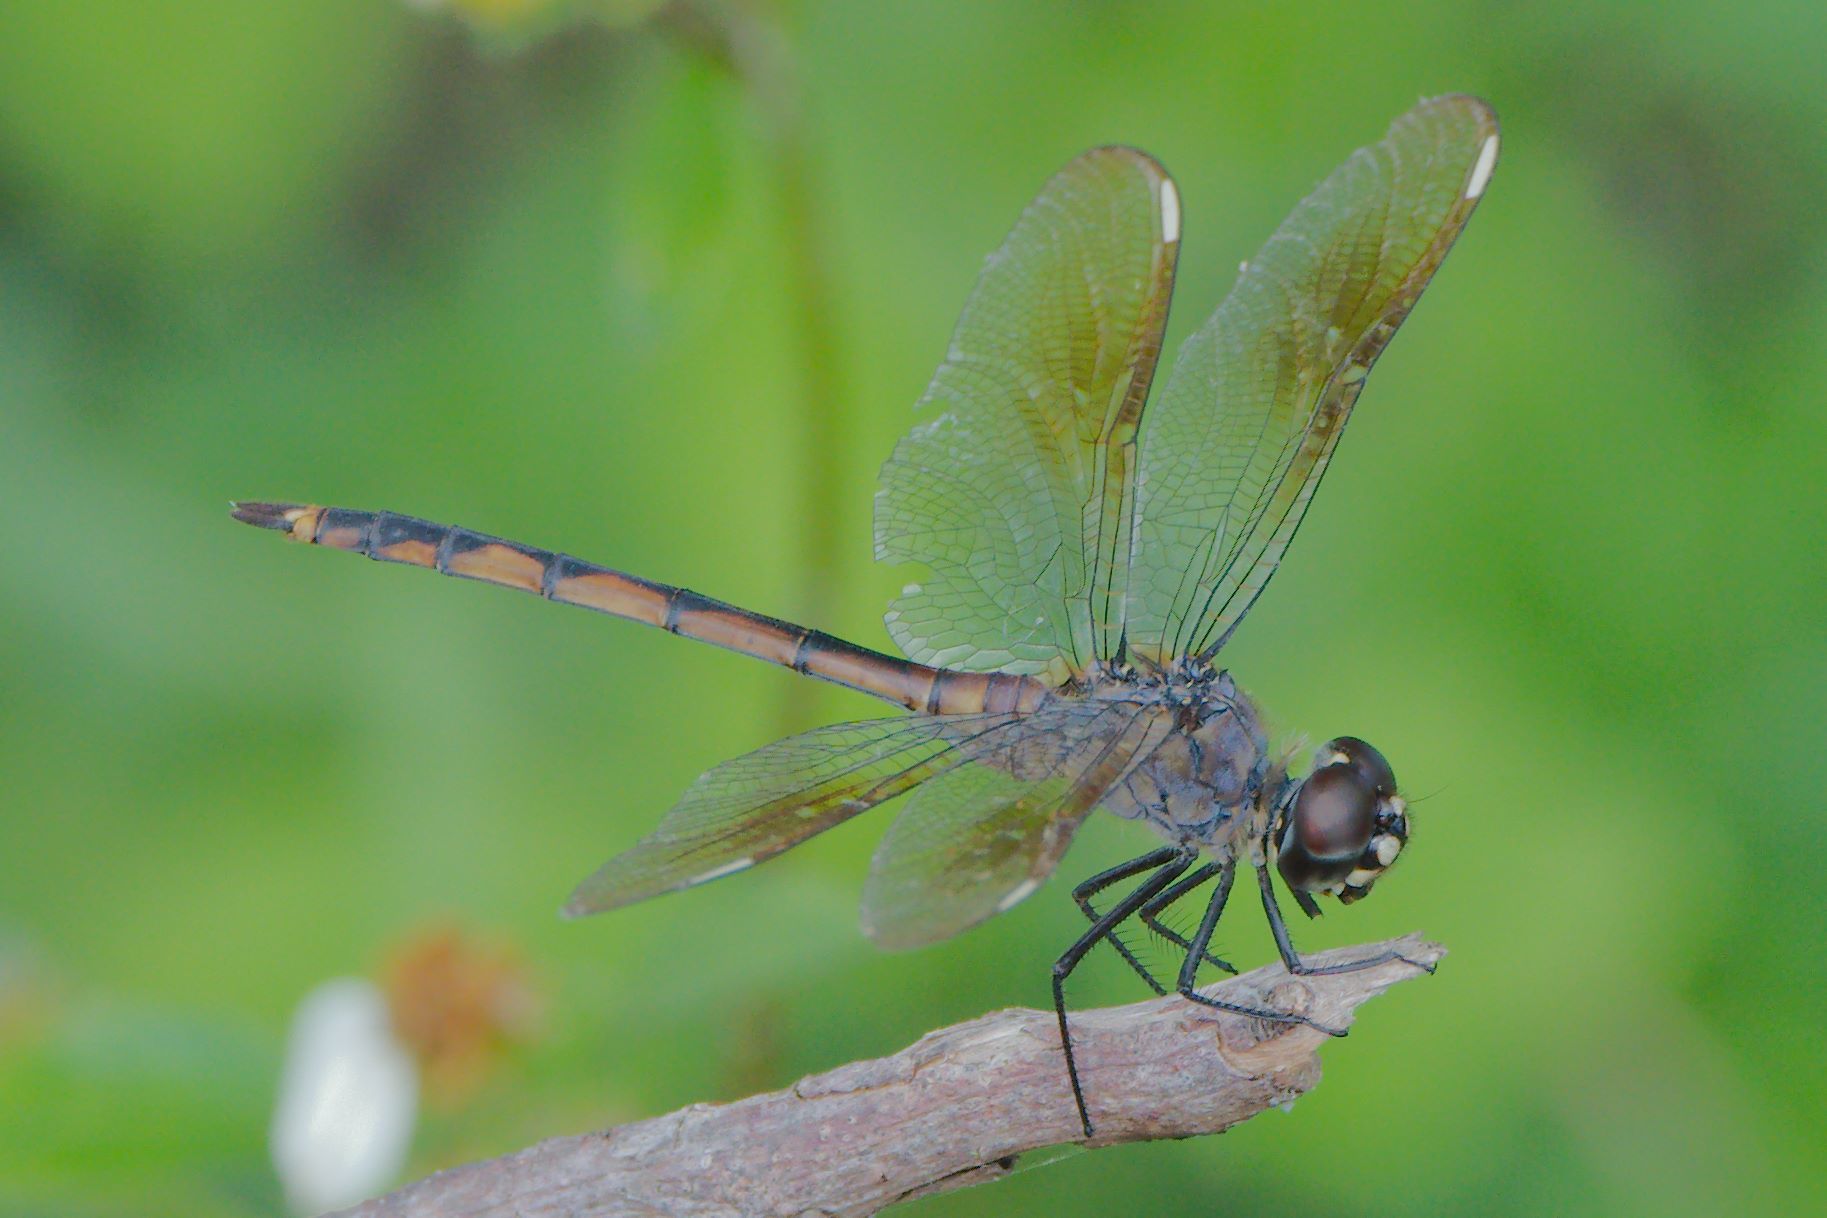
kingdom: Animalia
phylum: Arthropoda
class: Insecta
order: Odonata
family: Libellulidae
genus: Brachymesia
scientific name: Brachymesia gravida
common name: Four-spotted pennant
